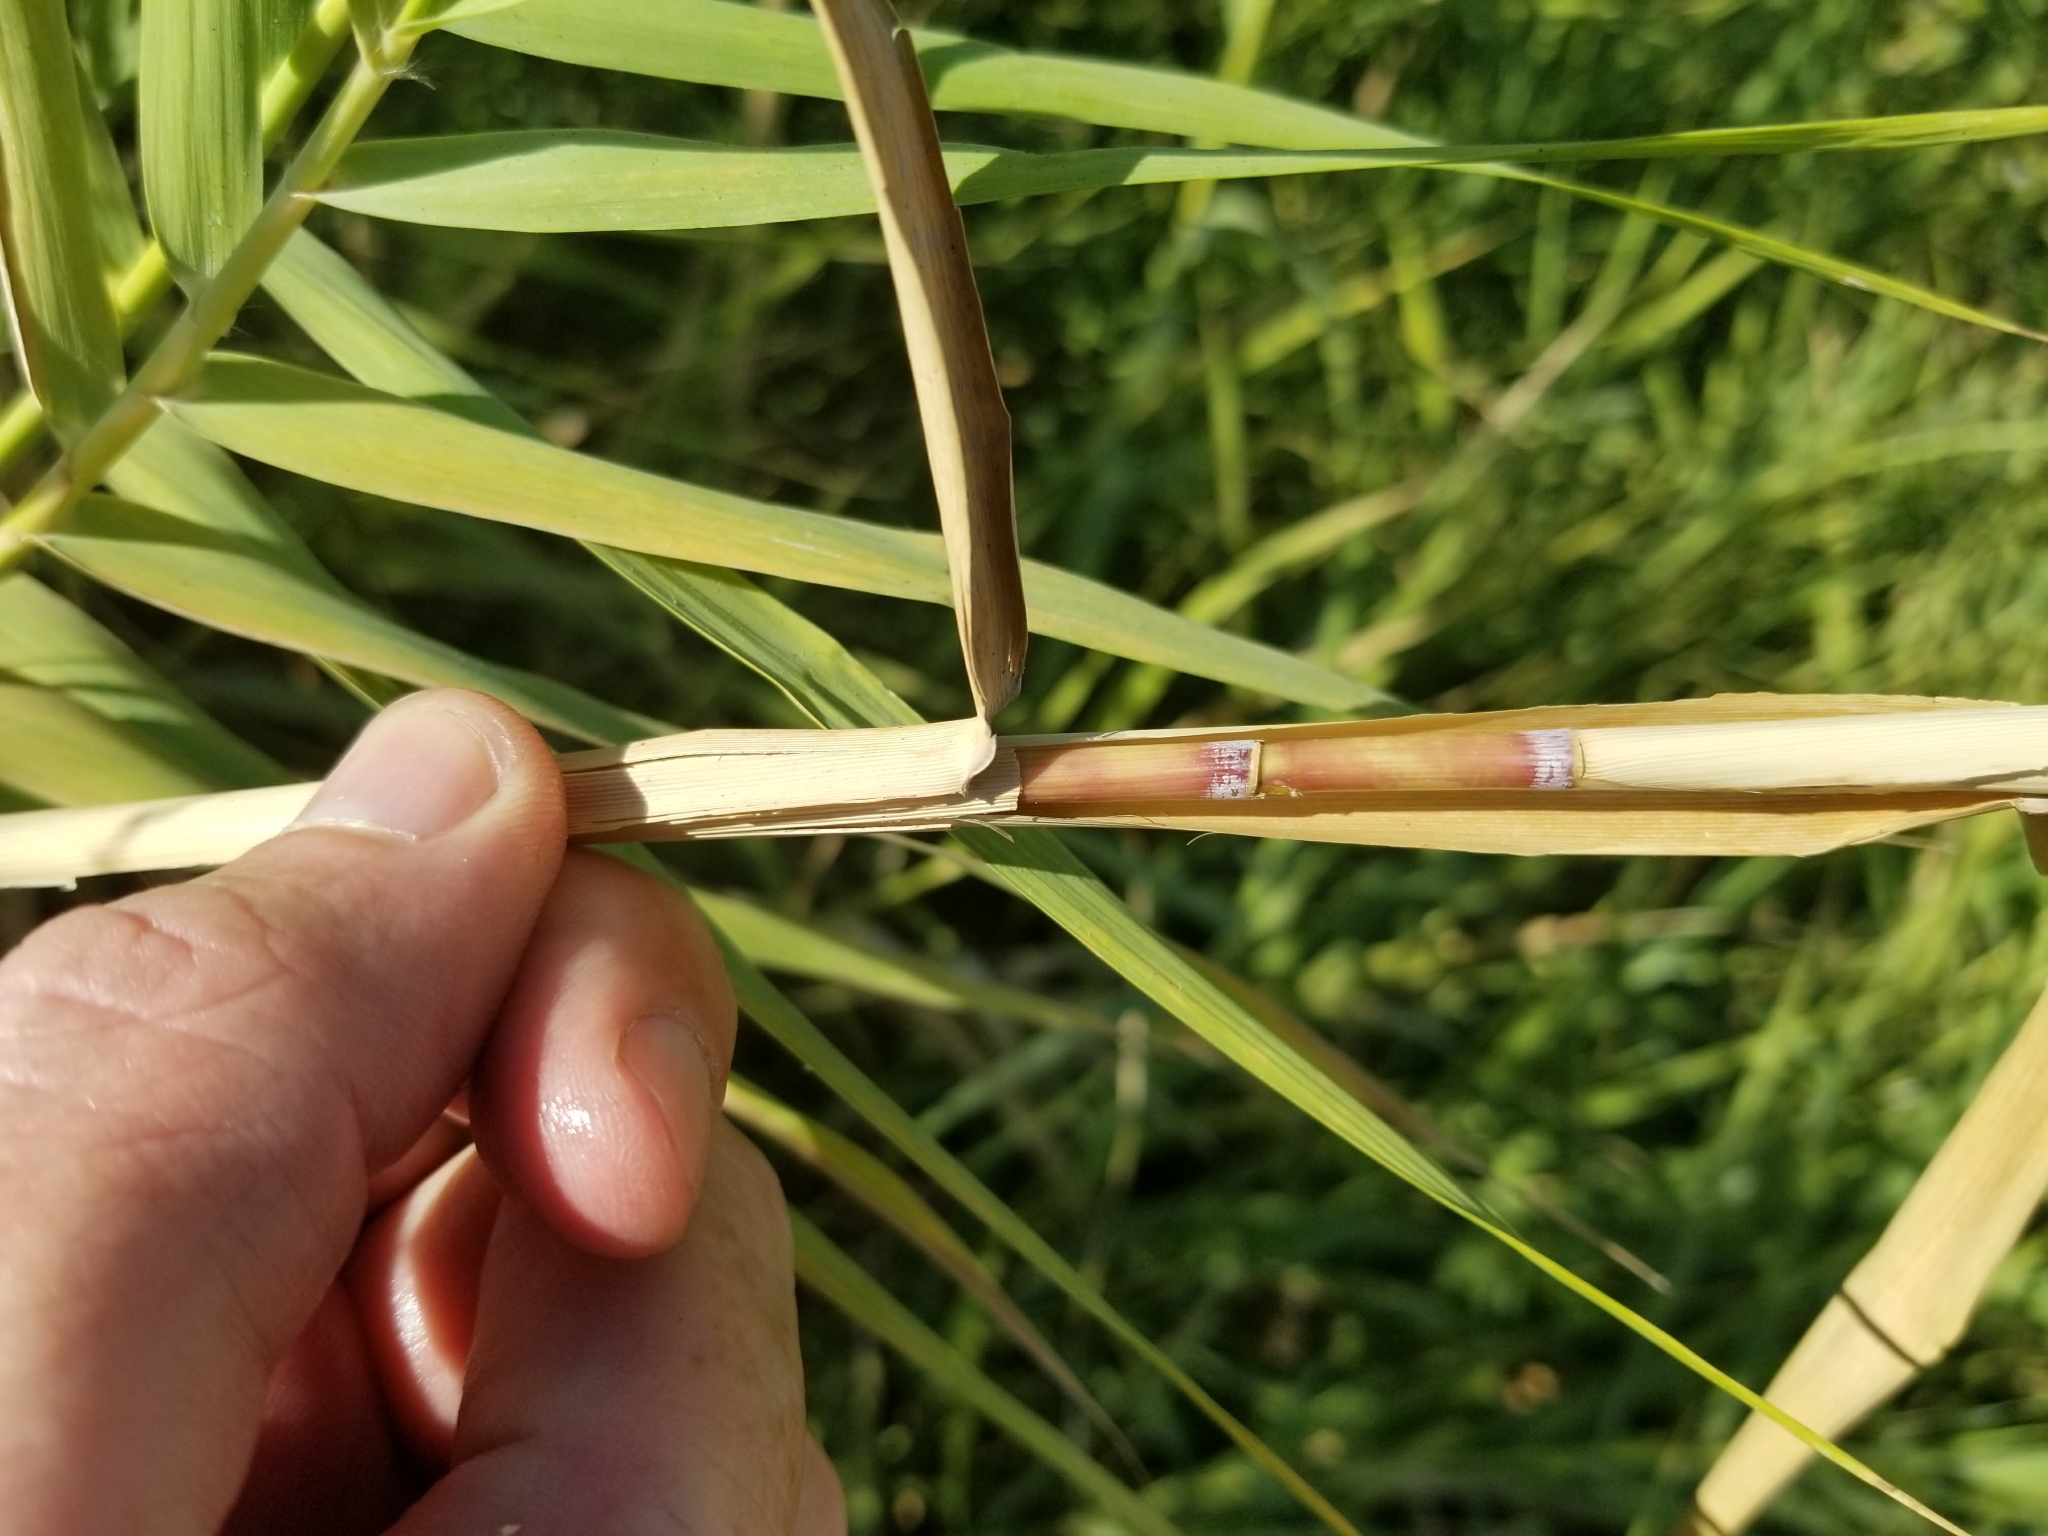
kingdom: Plantae
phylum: Tracheophyta
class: Liliopsida
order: Poales
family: Poaceae
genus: Phragmites
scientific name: Phragmites australis
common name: Common reed
